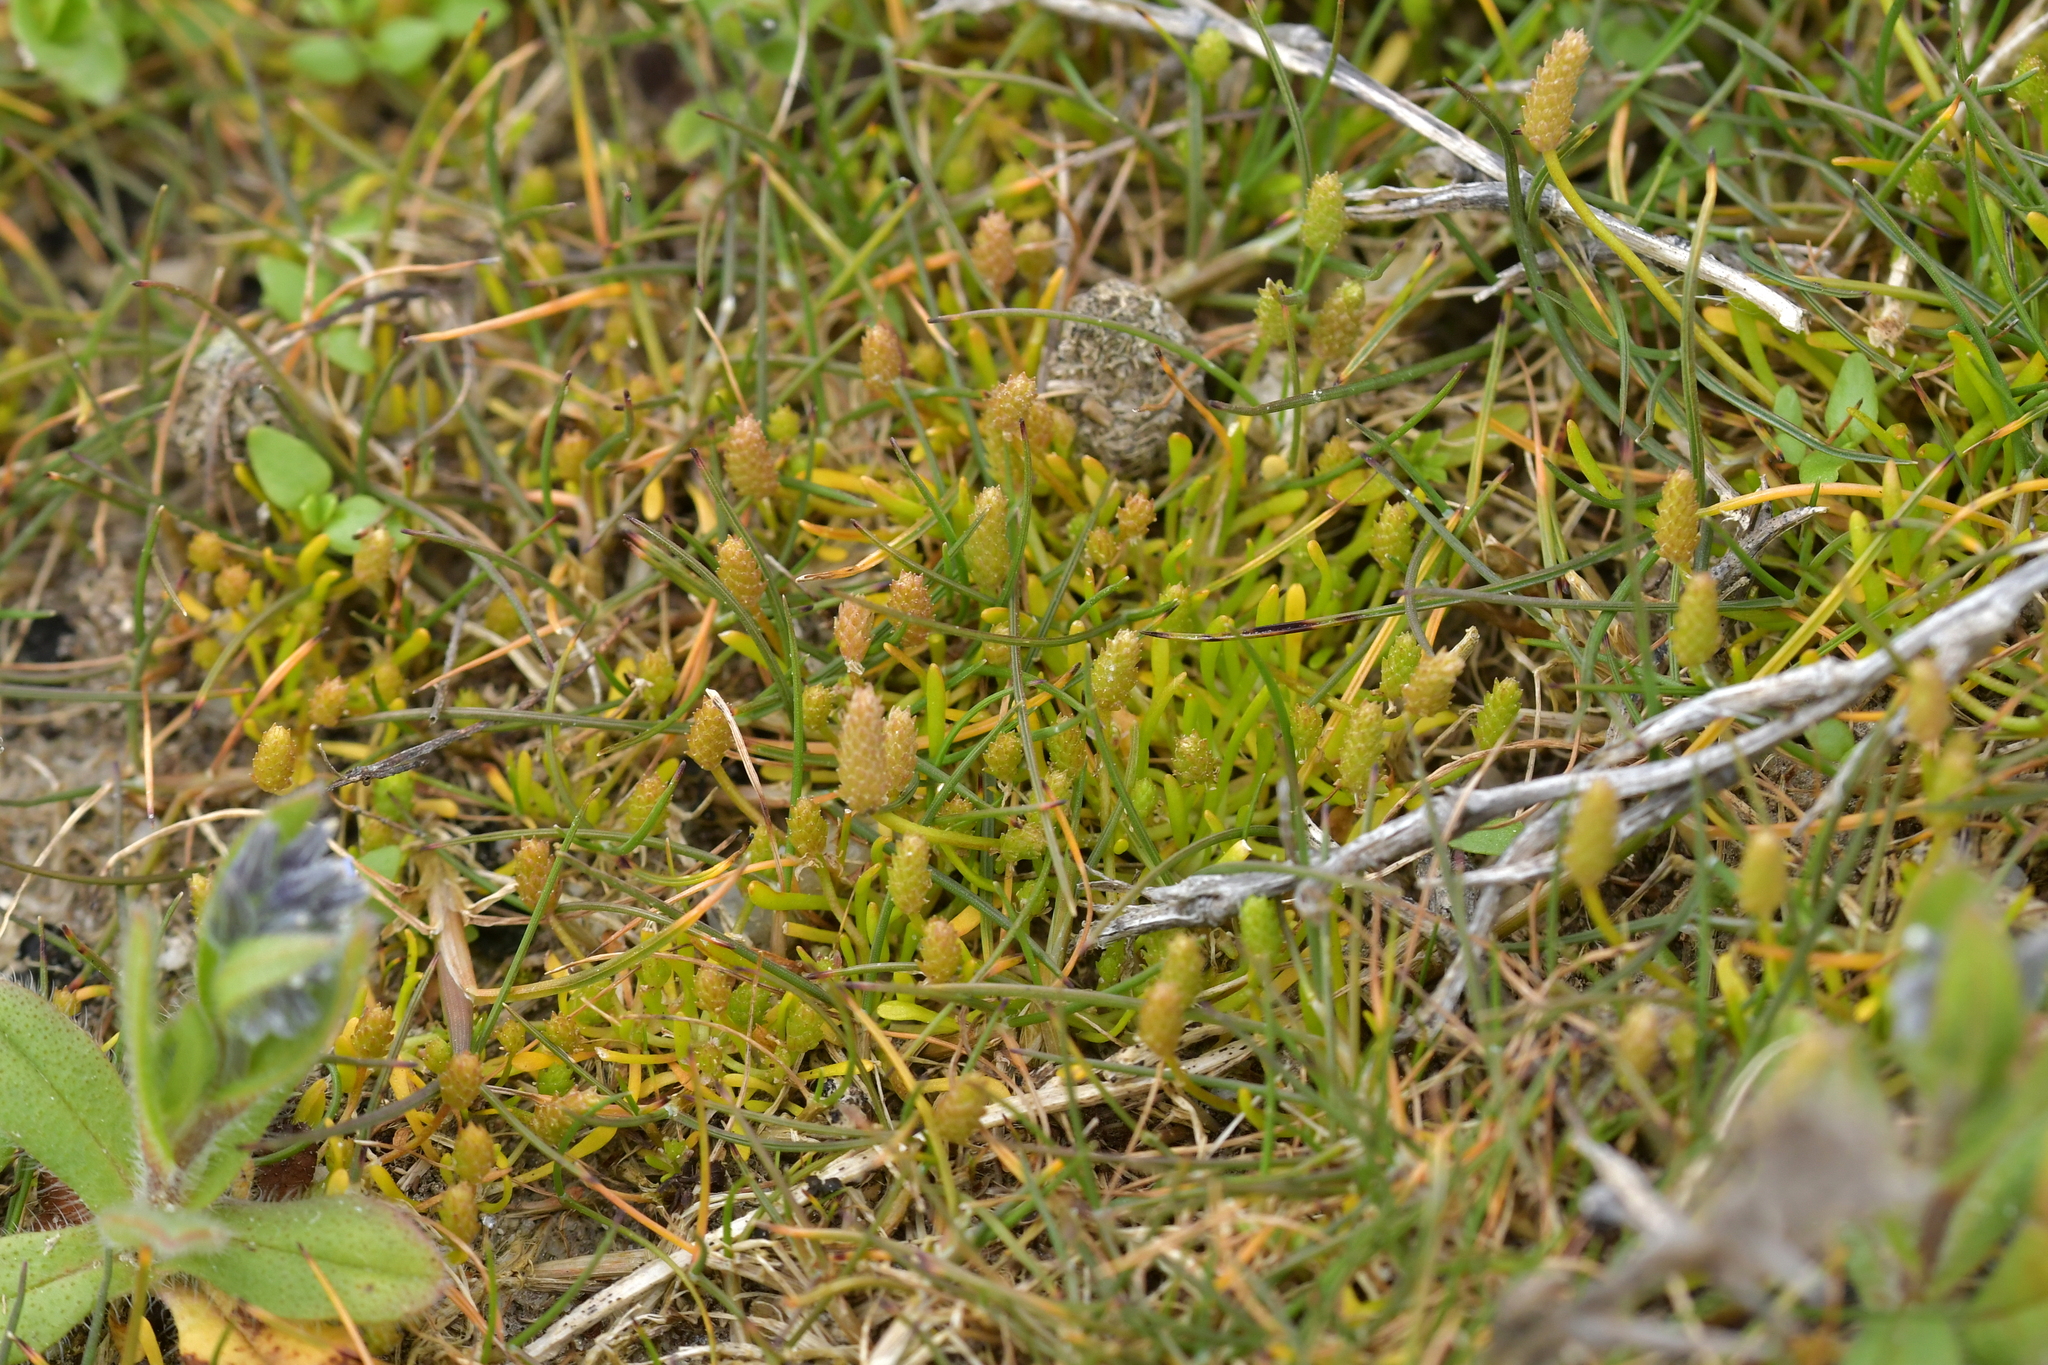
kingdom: Plantae
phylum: Tracheophyta
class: Magnoliopsida
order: Ranunculales
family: Ranunculaceae
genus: Myosurus
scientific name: Myosurus minimus
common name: Mousetail
